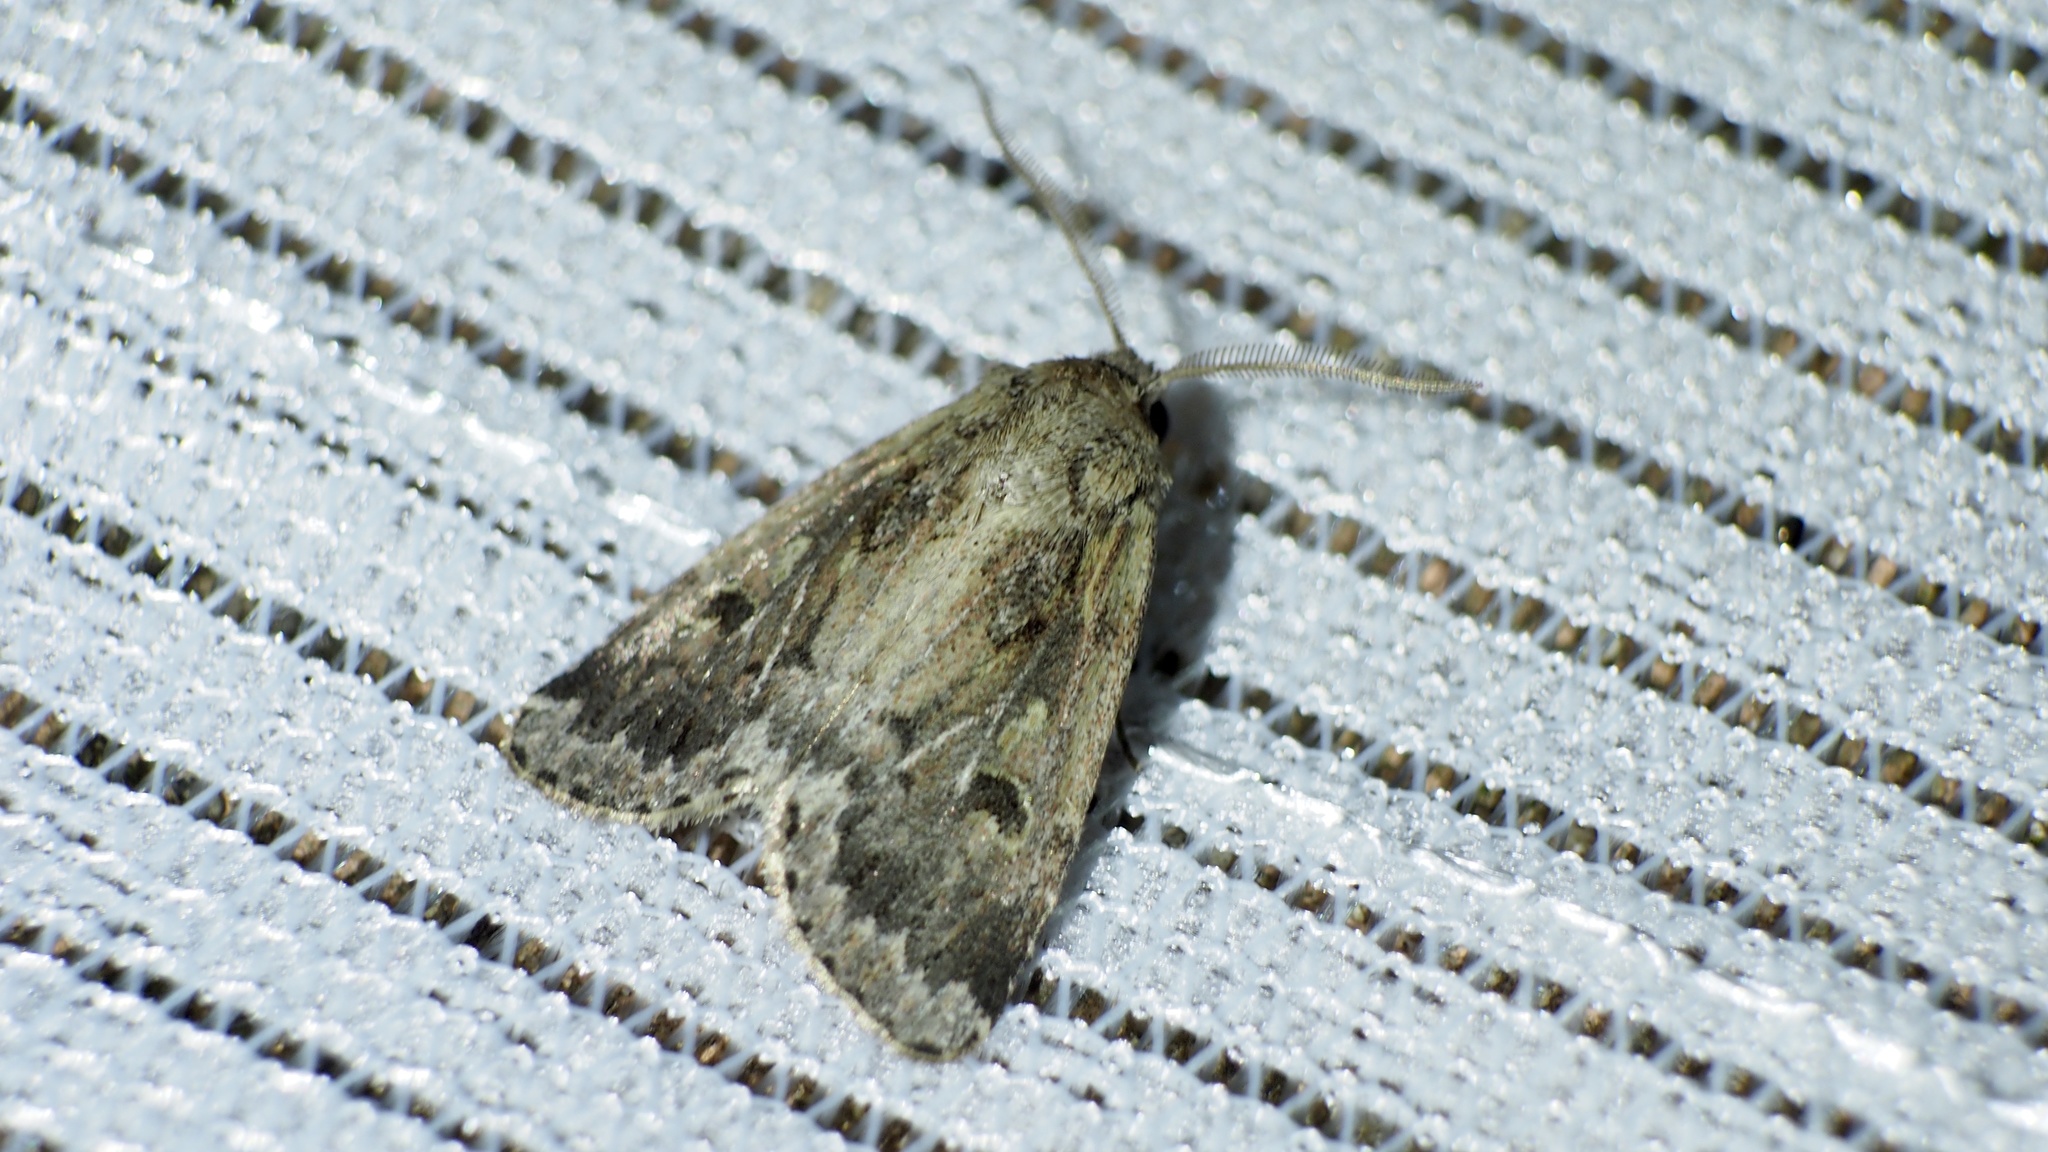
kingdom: Animalia
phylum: Arthropoda
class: Insecta
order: Lepidoptera
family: Noctuidae
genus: Spodoptera
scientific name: Spodoptera depravata
